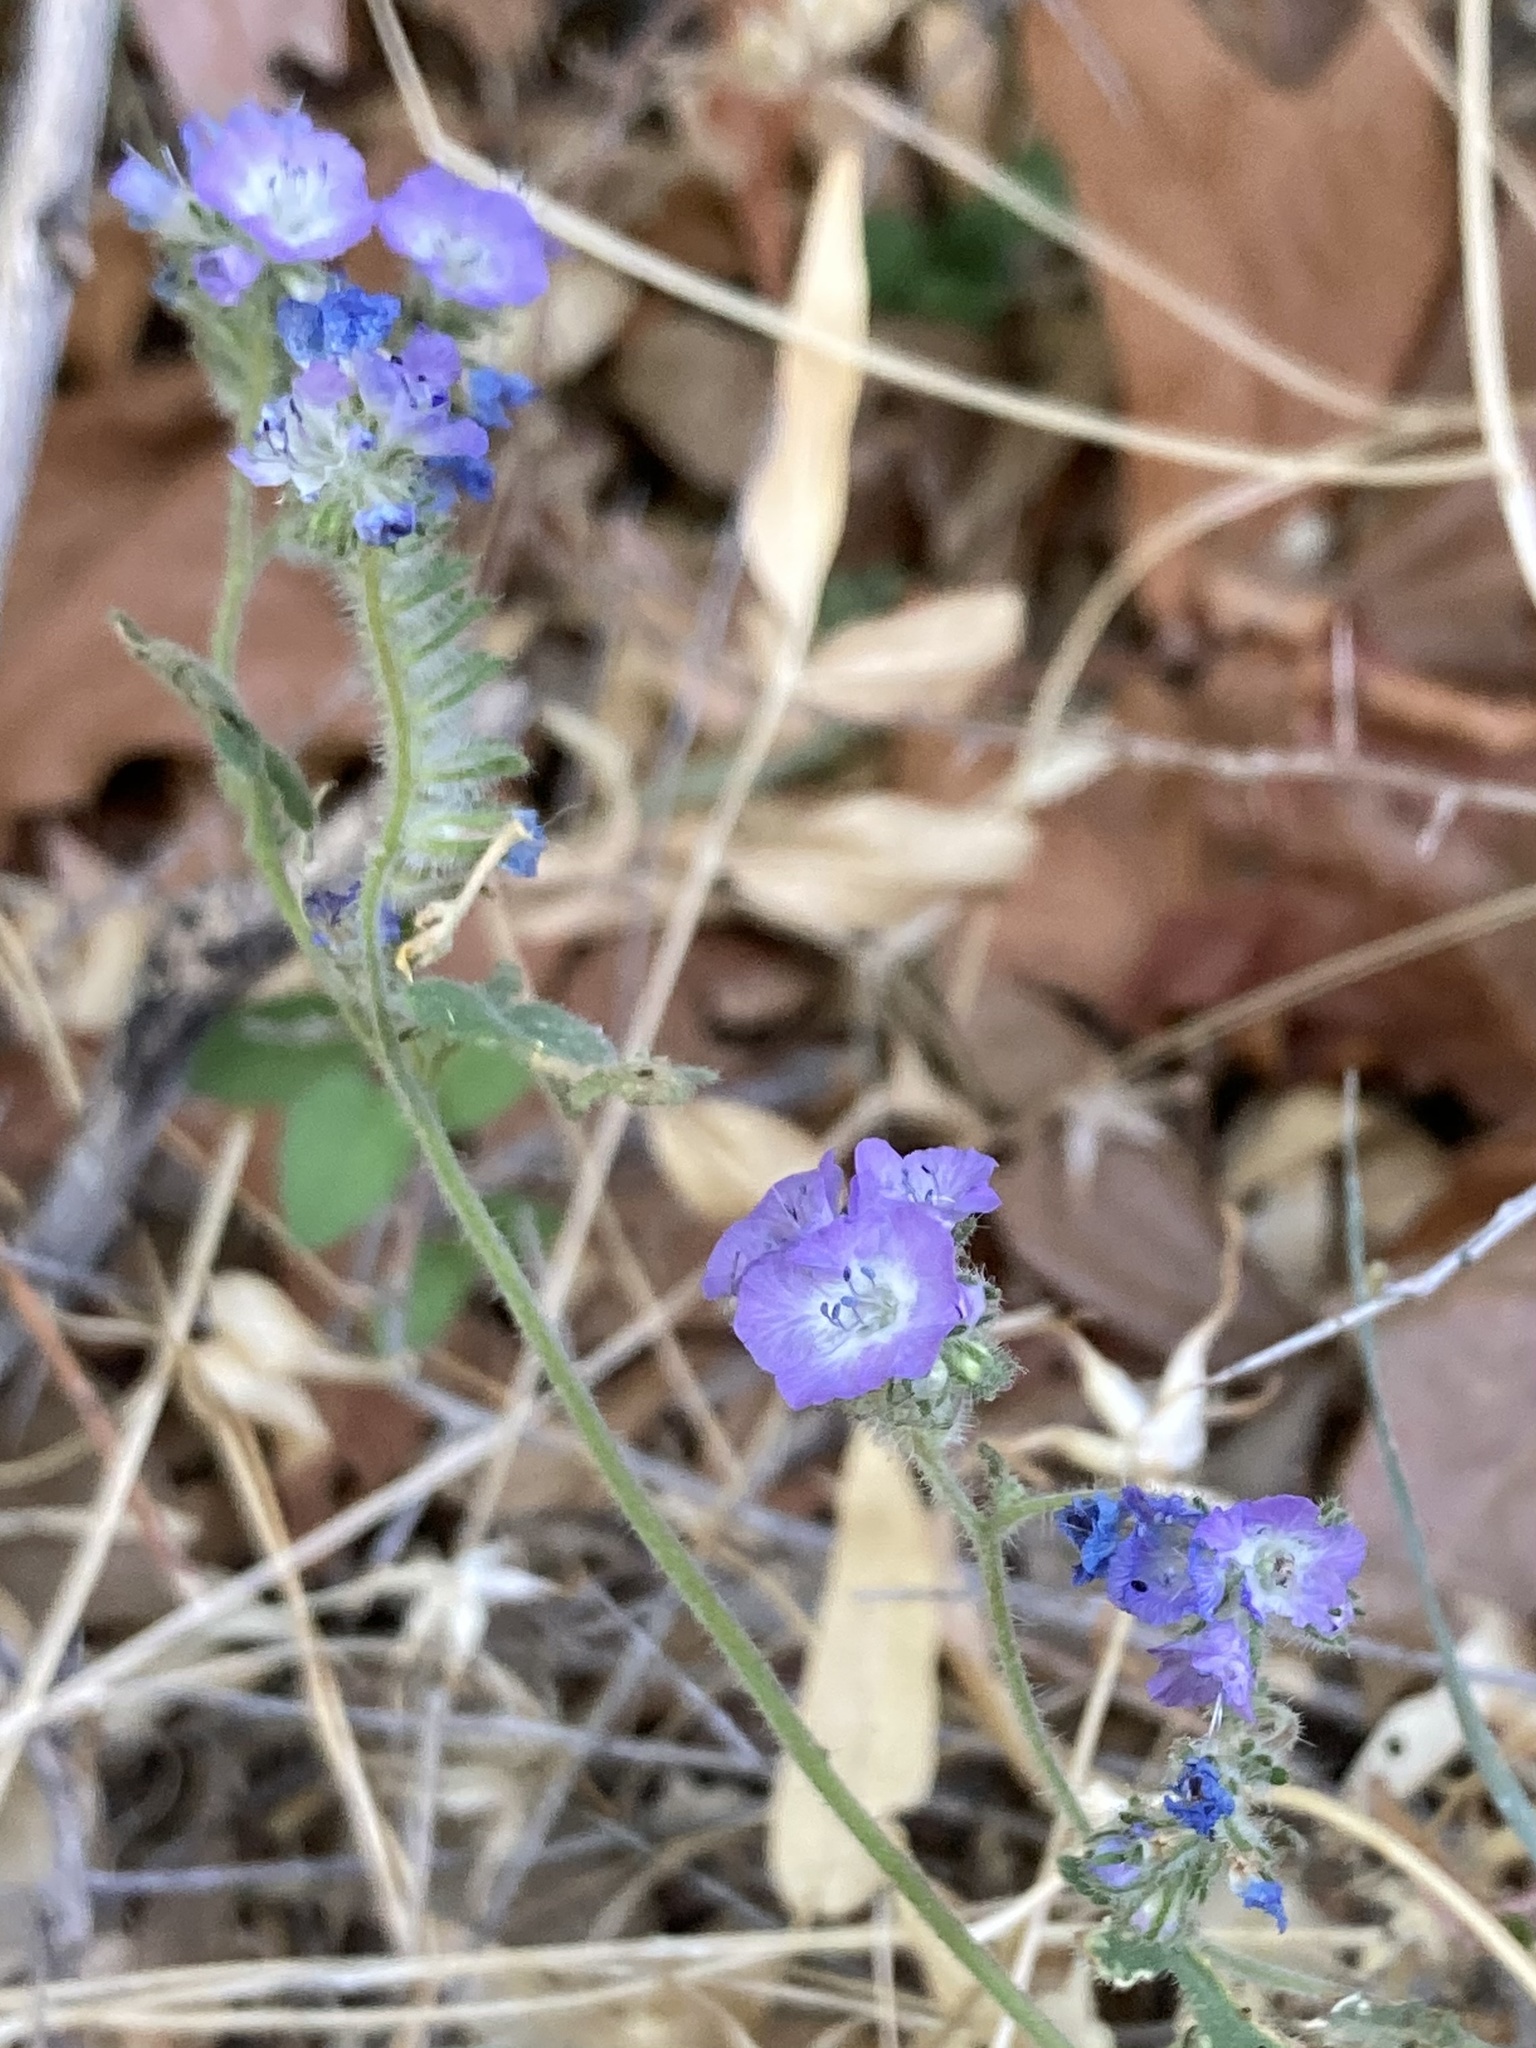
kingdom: Plantae
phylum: Tracheophyta
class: Magnoliopsida
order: Boraginales
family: Hydrophyllaceae
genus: Phacelia
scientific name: Phacelia distans
